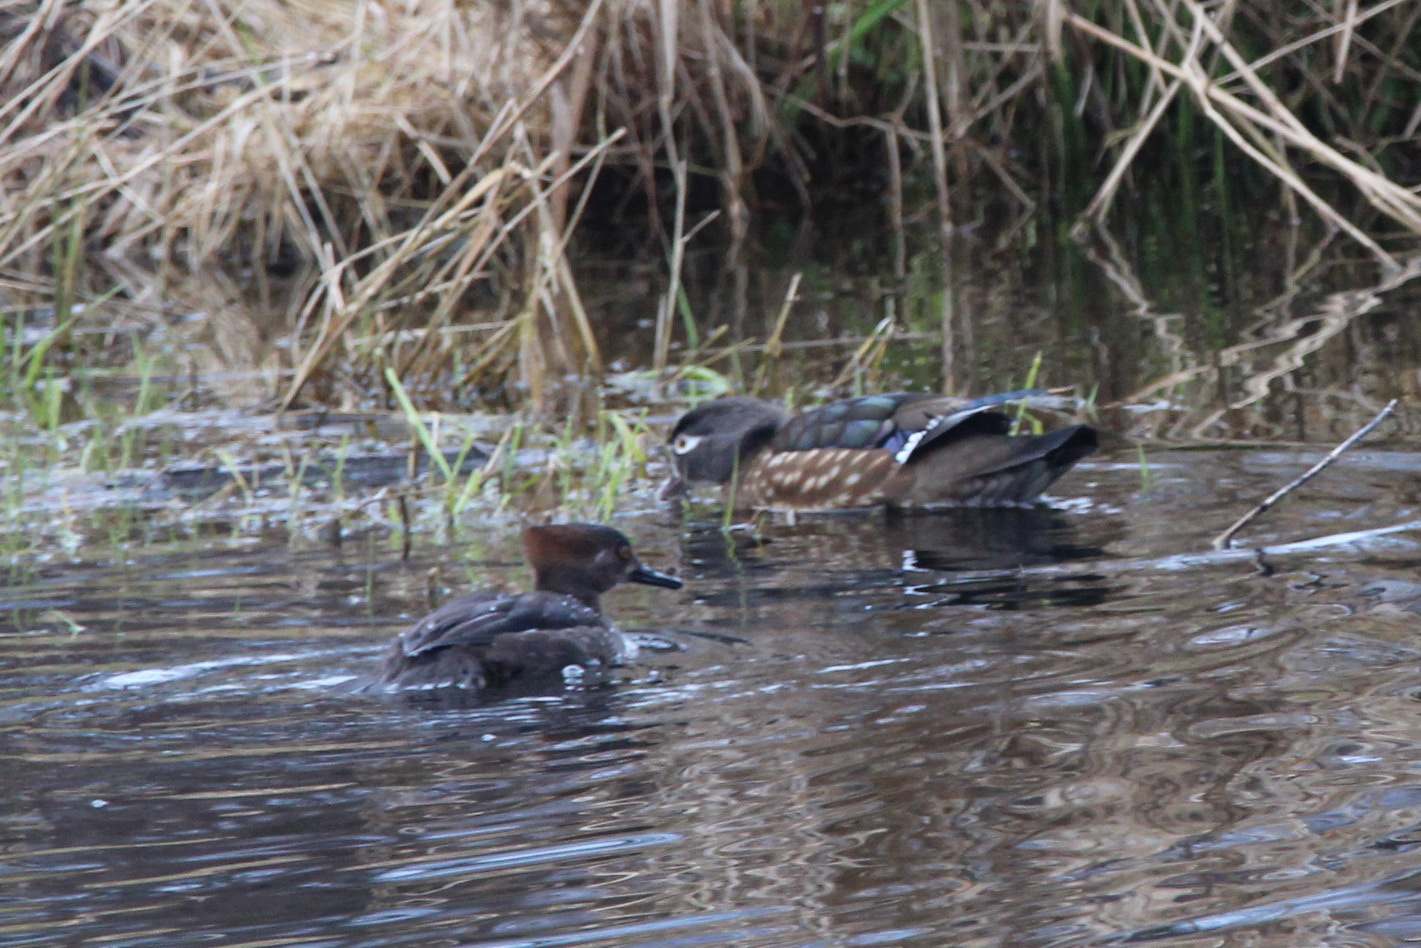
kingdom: Animalia
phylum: Chordata
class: Aves
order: Anseriformes
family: Anatidae
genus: Lophodytes
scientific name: Lophodytes cucullatus
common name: Hooded merganser
